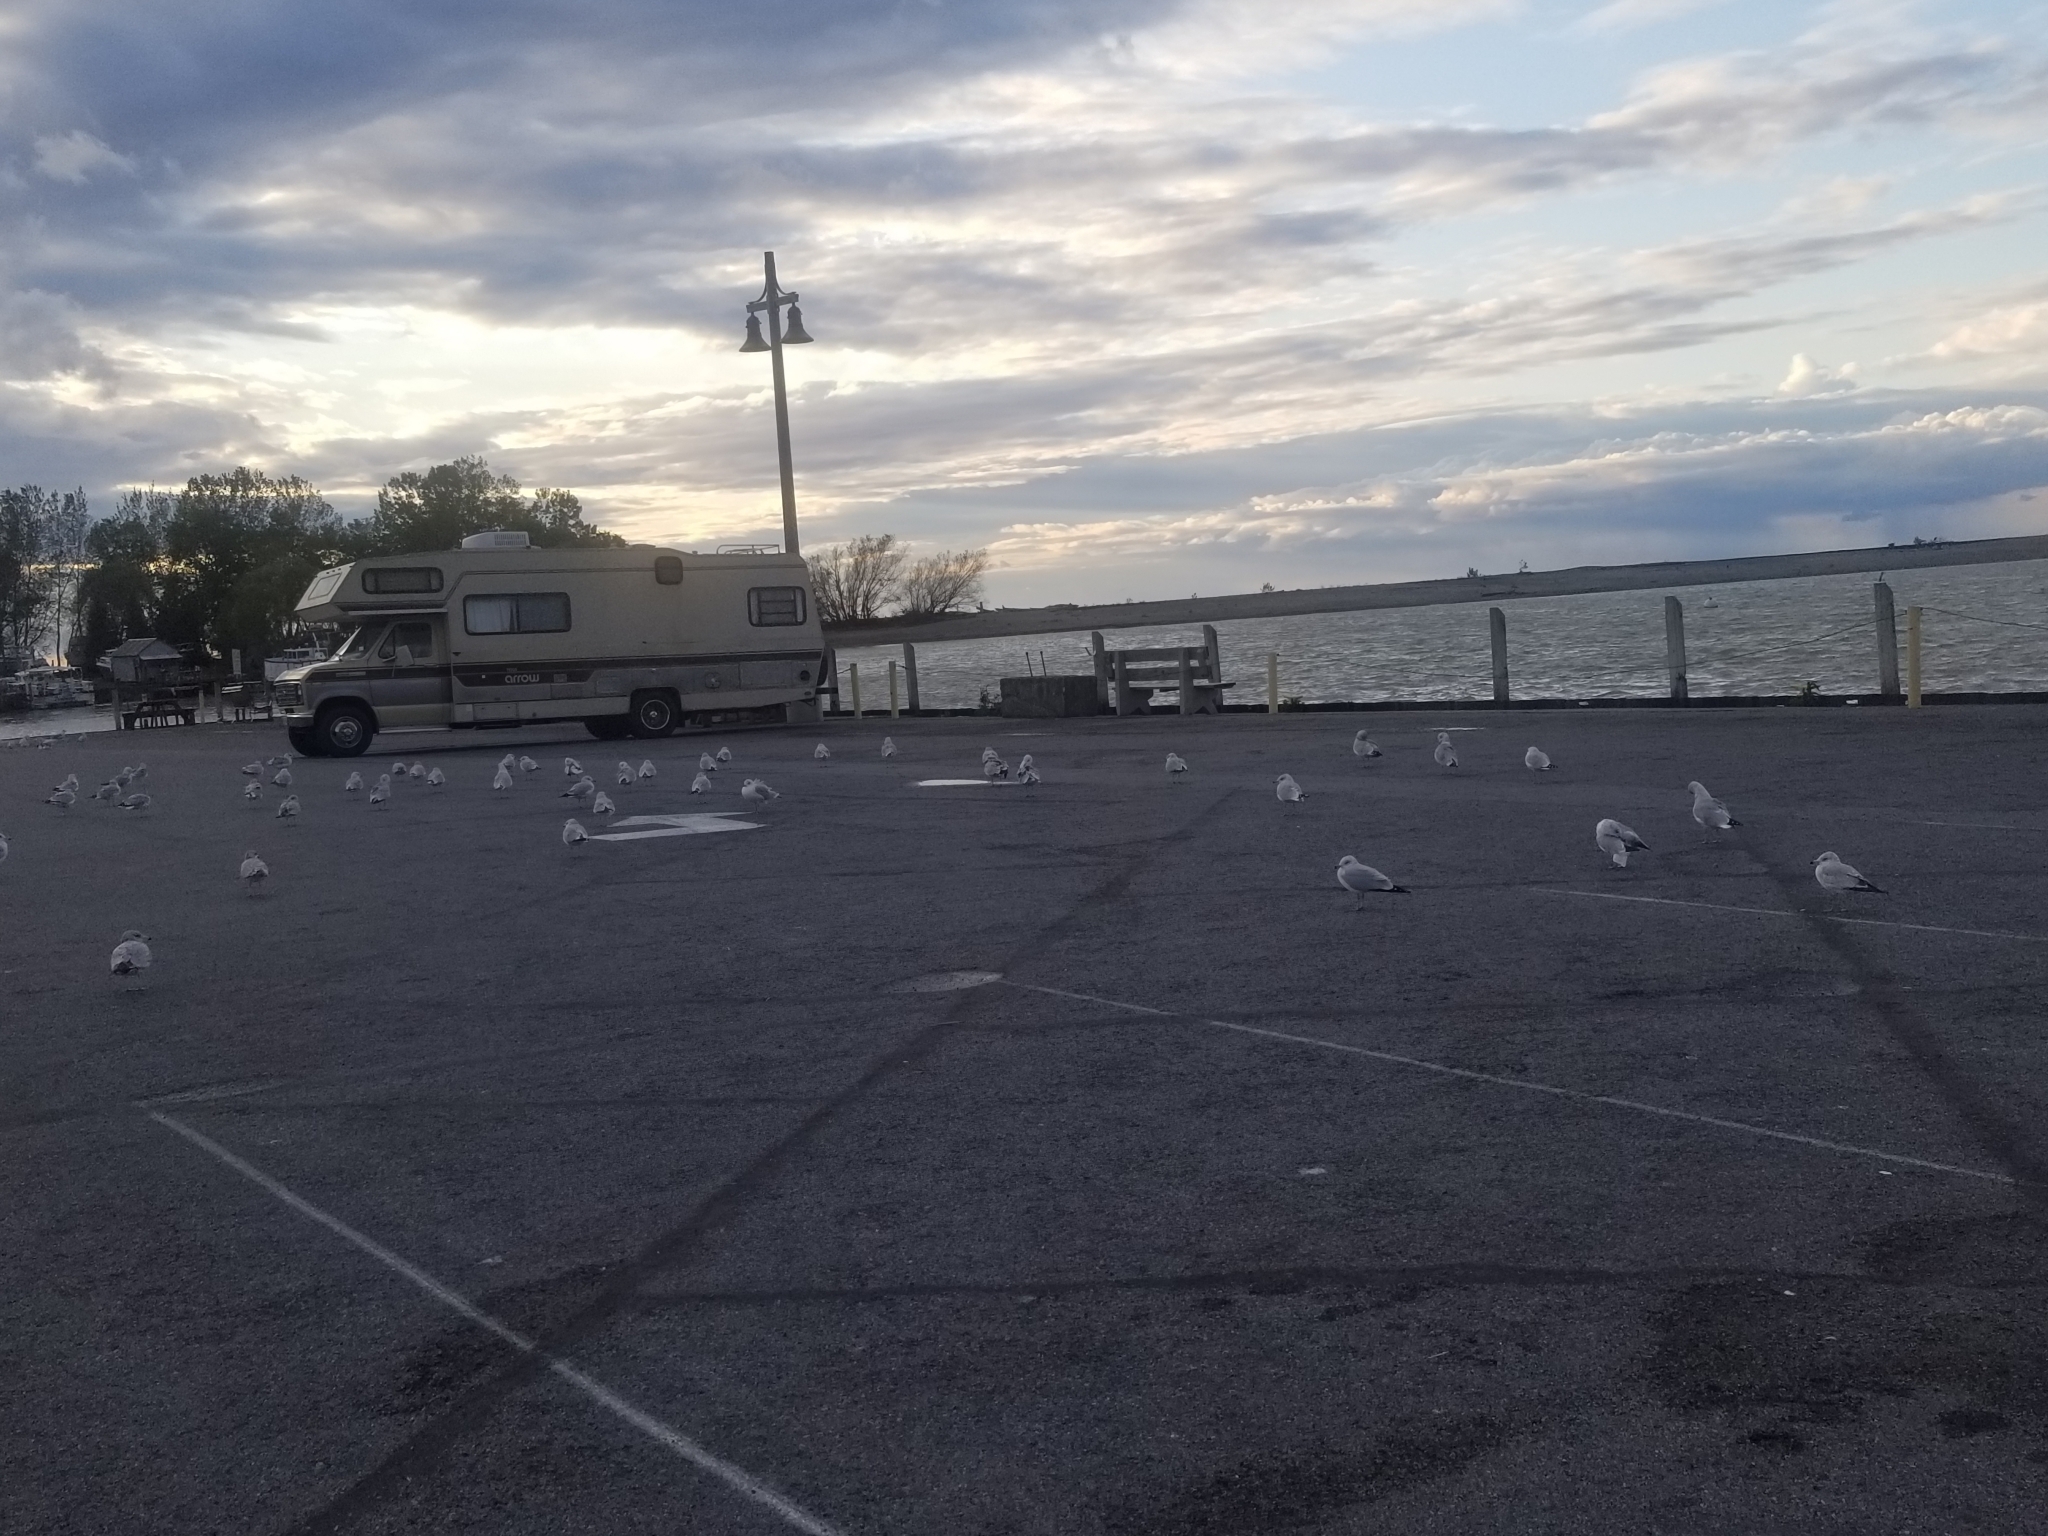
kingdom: Animalia
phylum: Chordata
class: Aves
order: Charadriiformes
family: Laridae
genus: Larus
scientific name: Larus delawarensis
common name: Ring-billed gull
